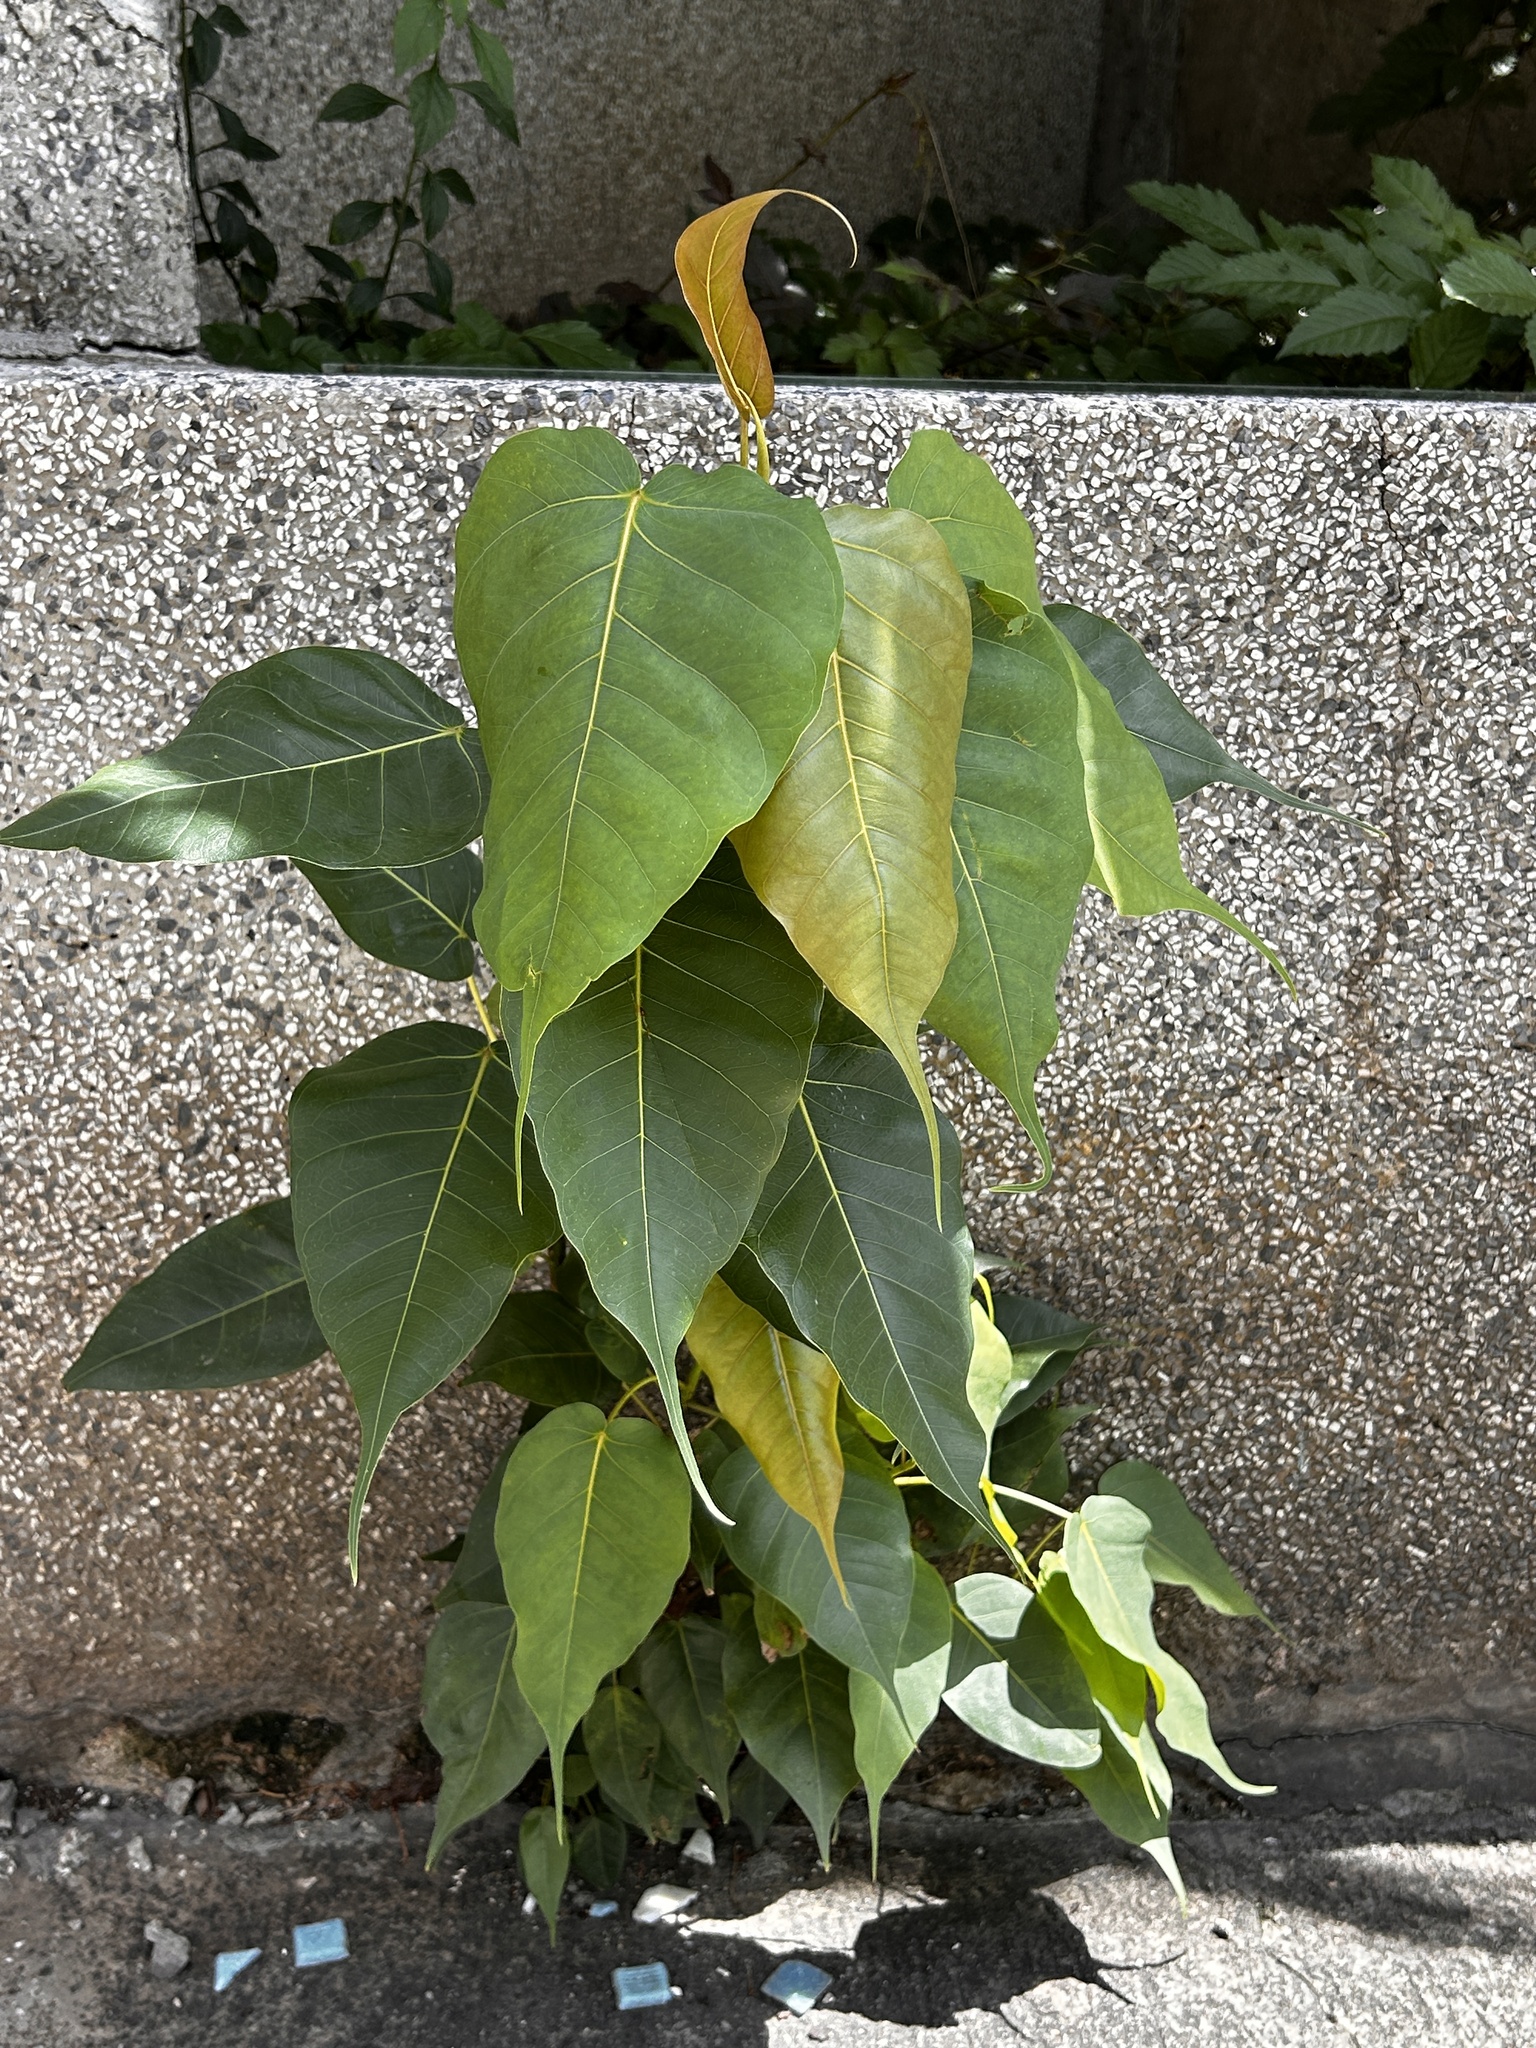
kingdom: Plantae
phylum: Tracheophyta
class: Magnoliopsida
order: Rosales
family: Moraceae
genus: Ficus
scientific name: Ficus religiosa
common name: Bodhi tree
